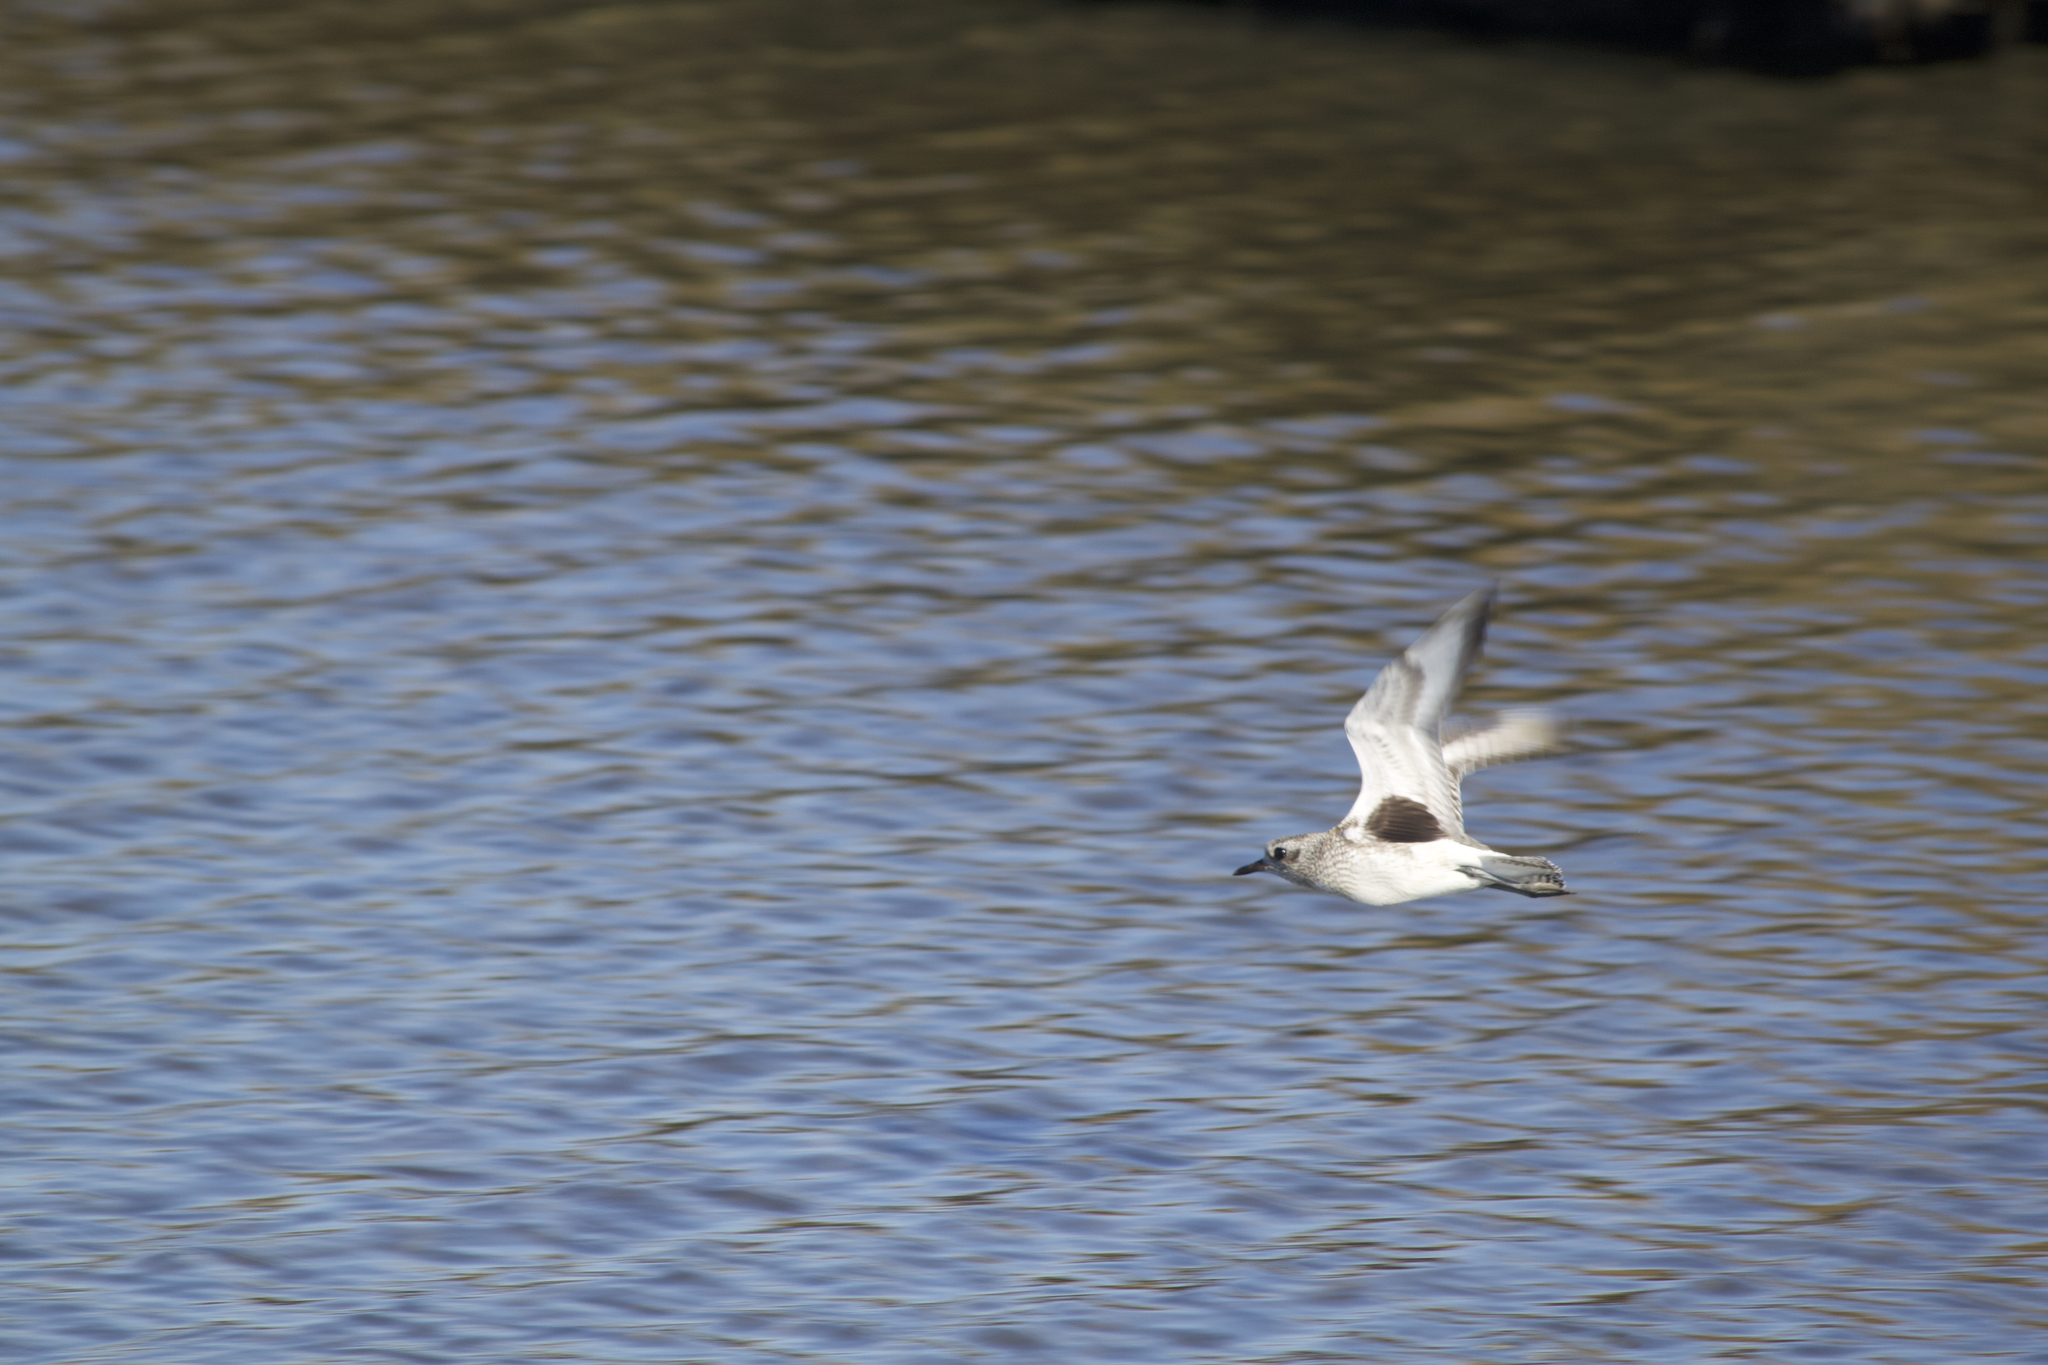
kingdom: Animalia
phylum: Chordata
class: Aves
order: Charadriiformes
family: Charadriidae
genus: Pluvialis
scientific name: Pluvialis squatarola
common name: Grey plover
